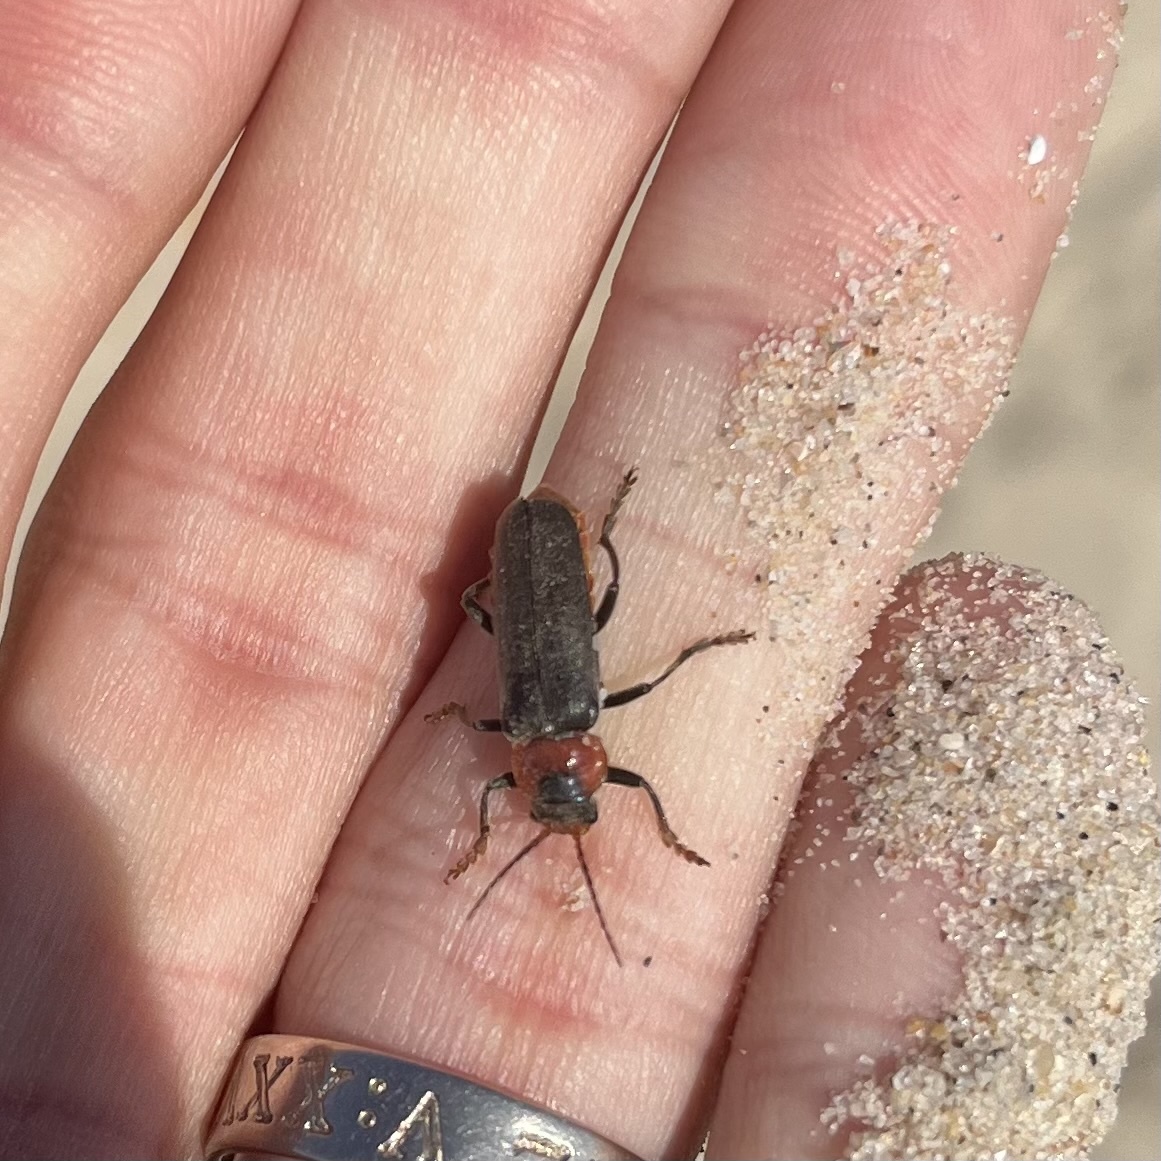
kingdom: Animalia
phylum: Arthropoda
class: Insecta
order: Coleoptera
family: Cantharidae
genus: Cantharis
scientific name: Cantharis fusca
